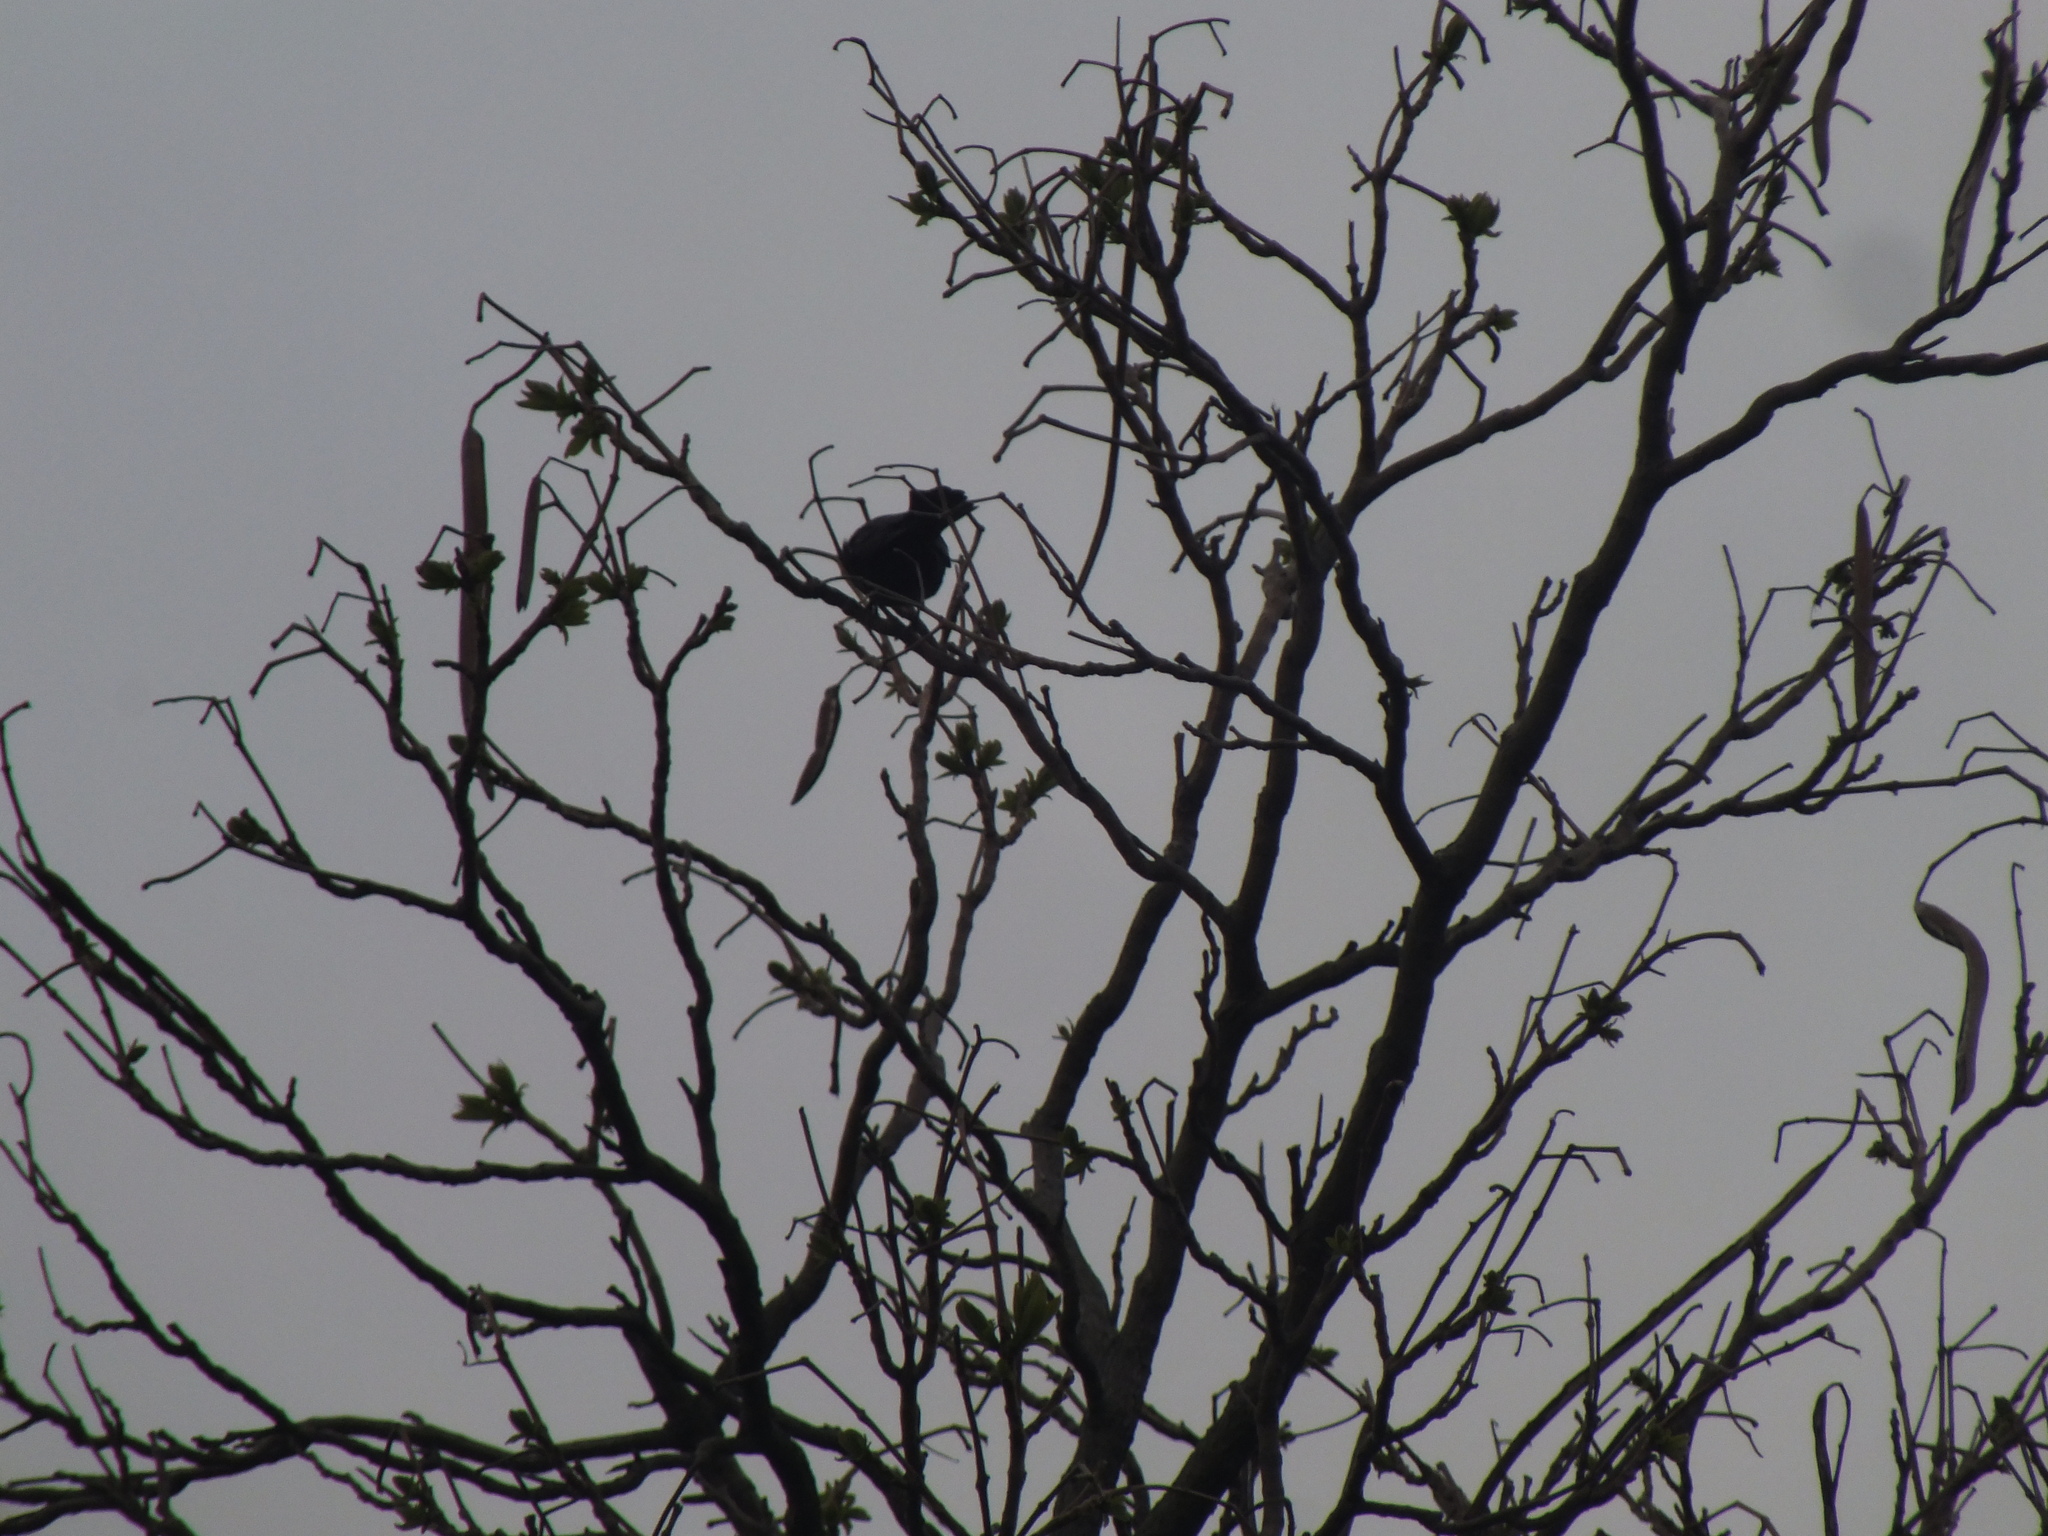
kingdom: Animalia
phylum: Chordata
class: Aves
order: Passeriformes
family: Icteridae
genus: Agelaius
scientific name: Agelaius phoeniceus
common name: Red-winged blackbird
